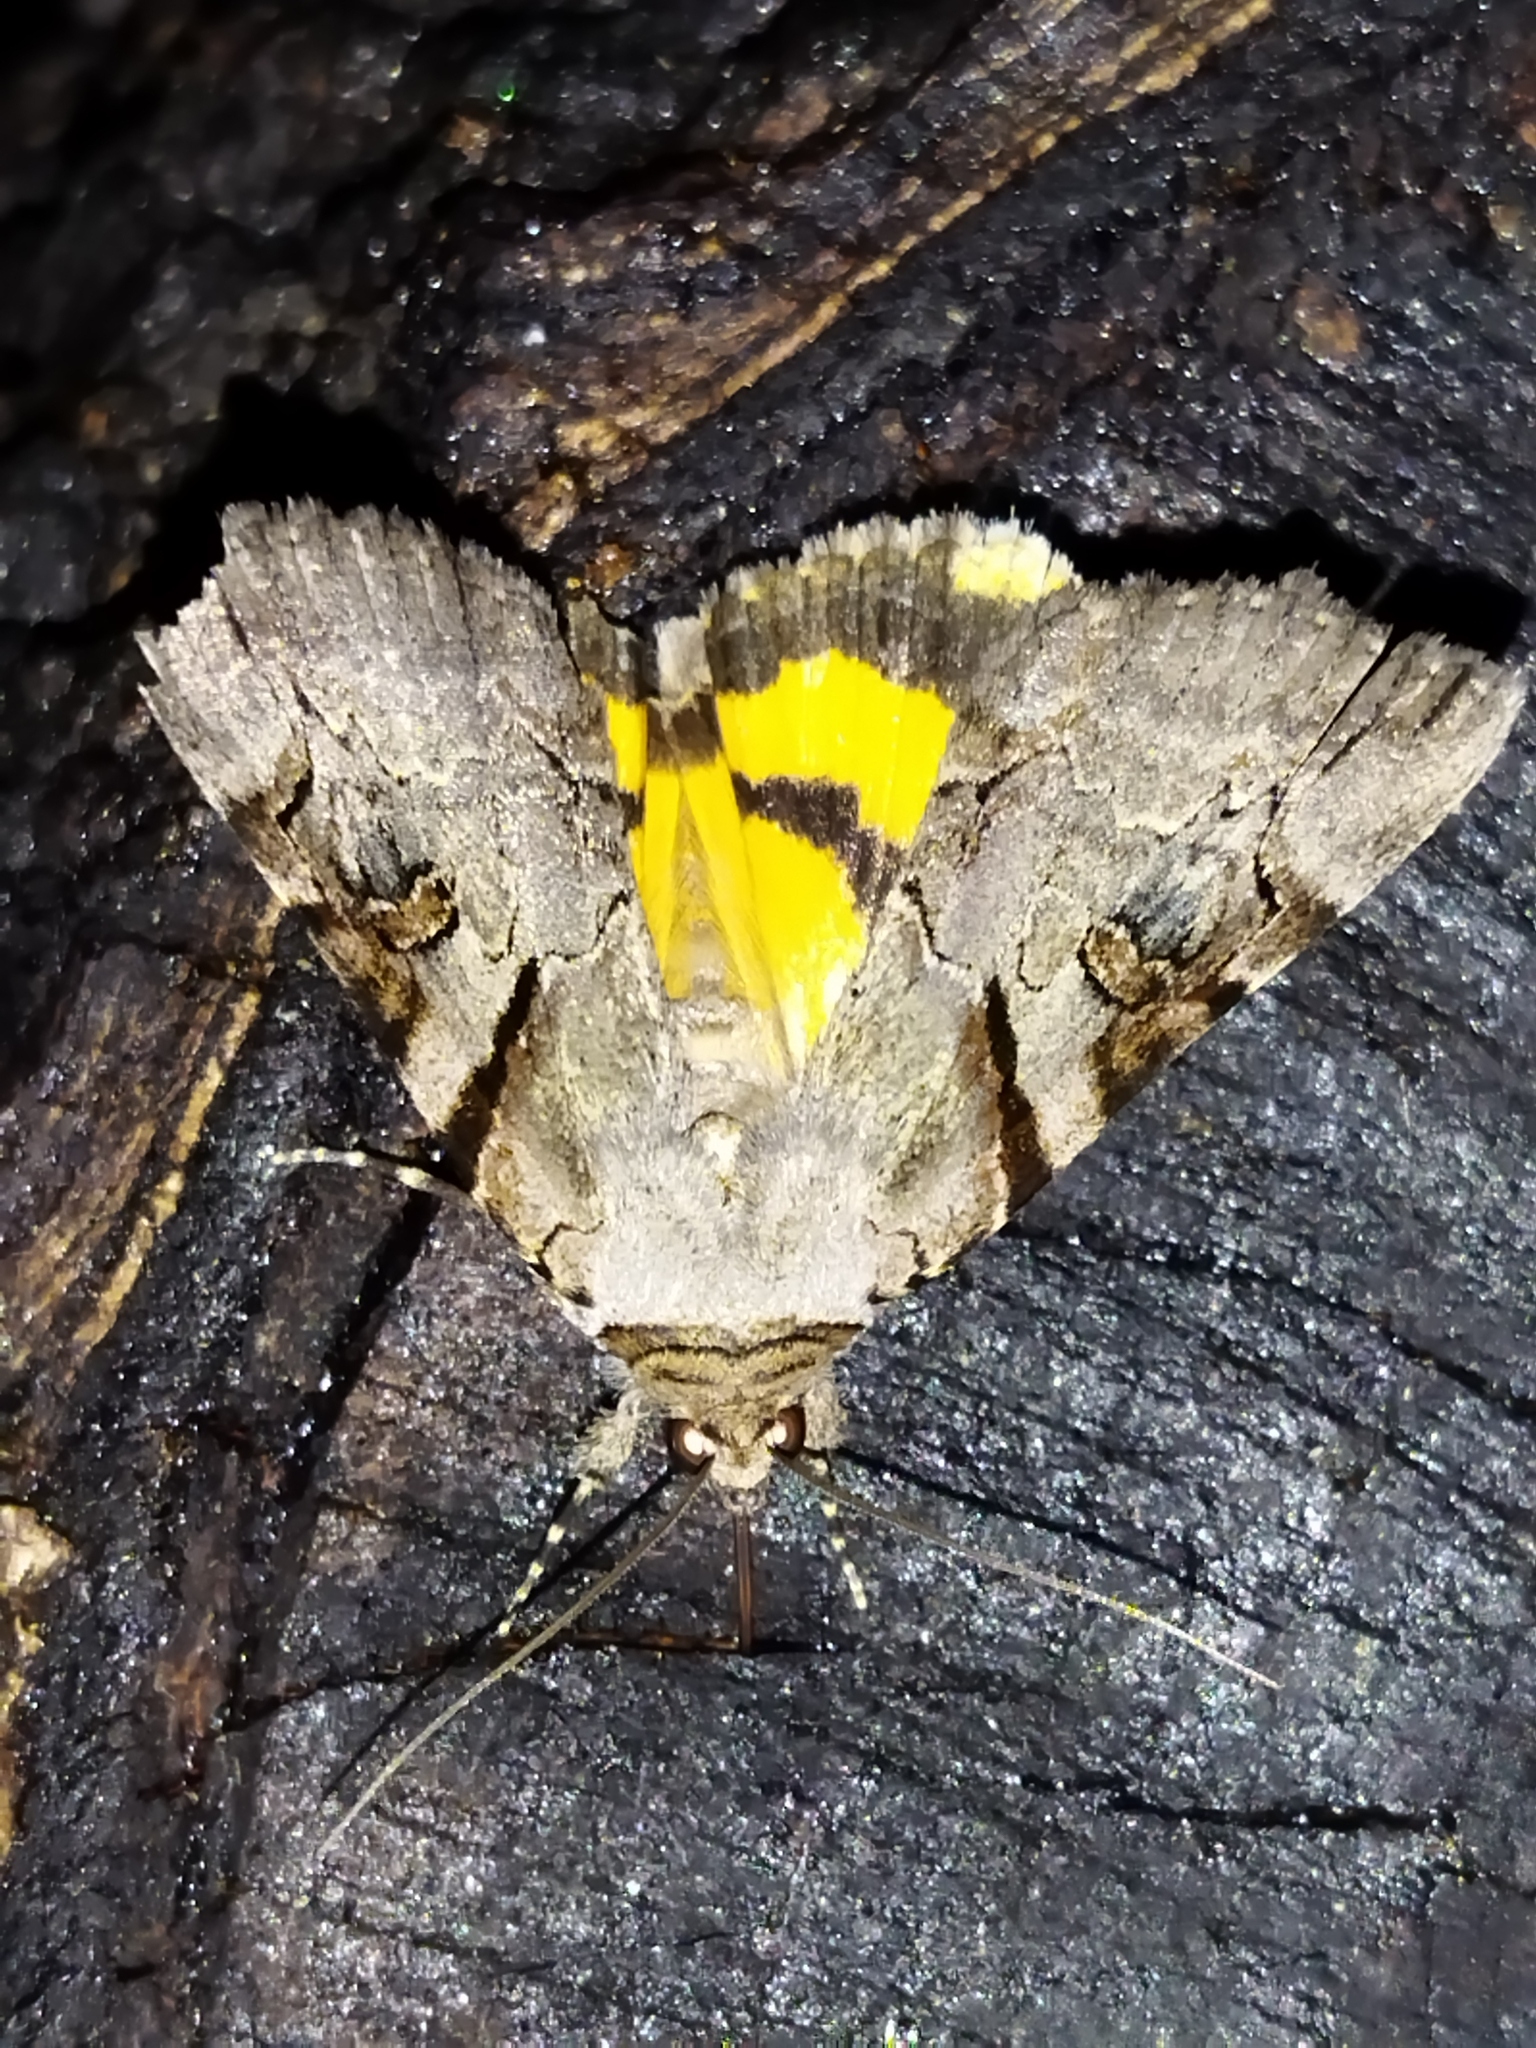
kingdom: Animalia
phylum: Arthropoda
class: Insecta
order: Lepidoptera
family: Erebidae
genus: Catocala
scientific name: Catocala hymenaea
